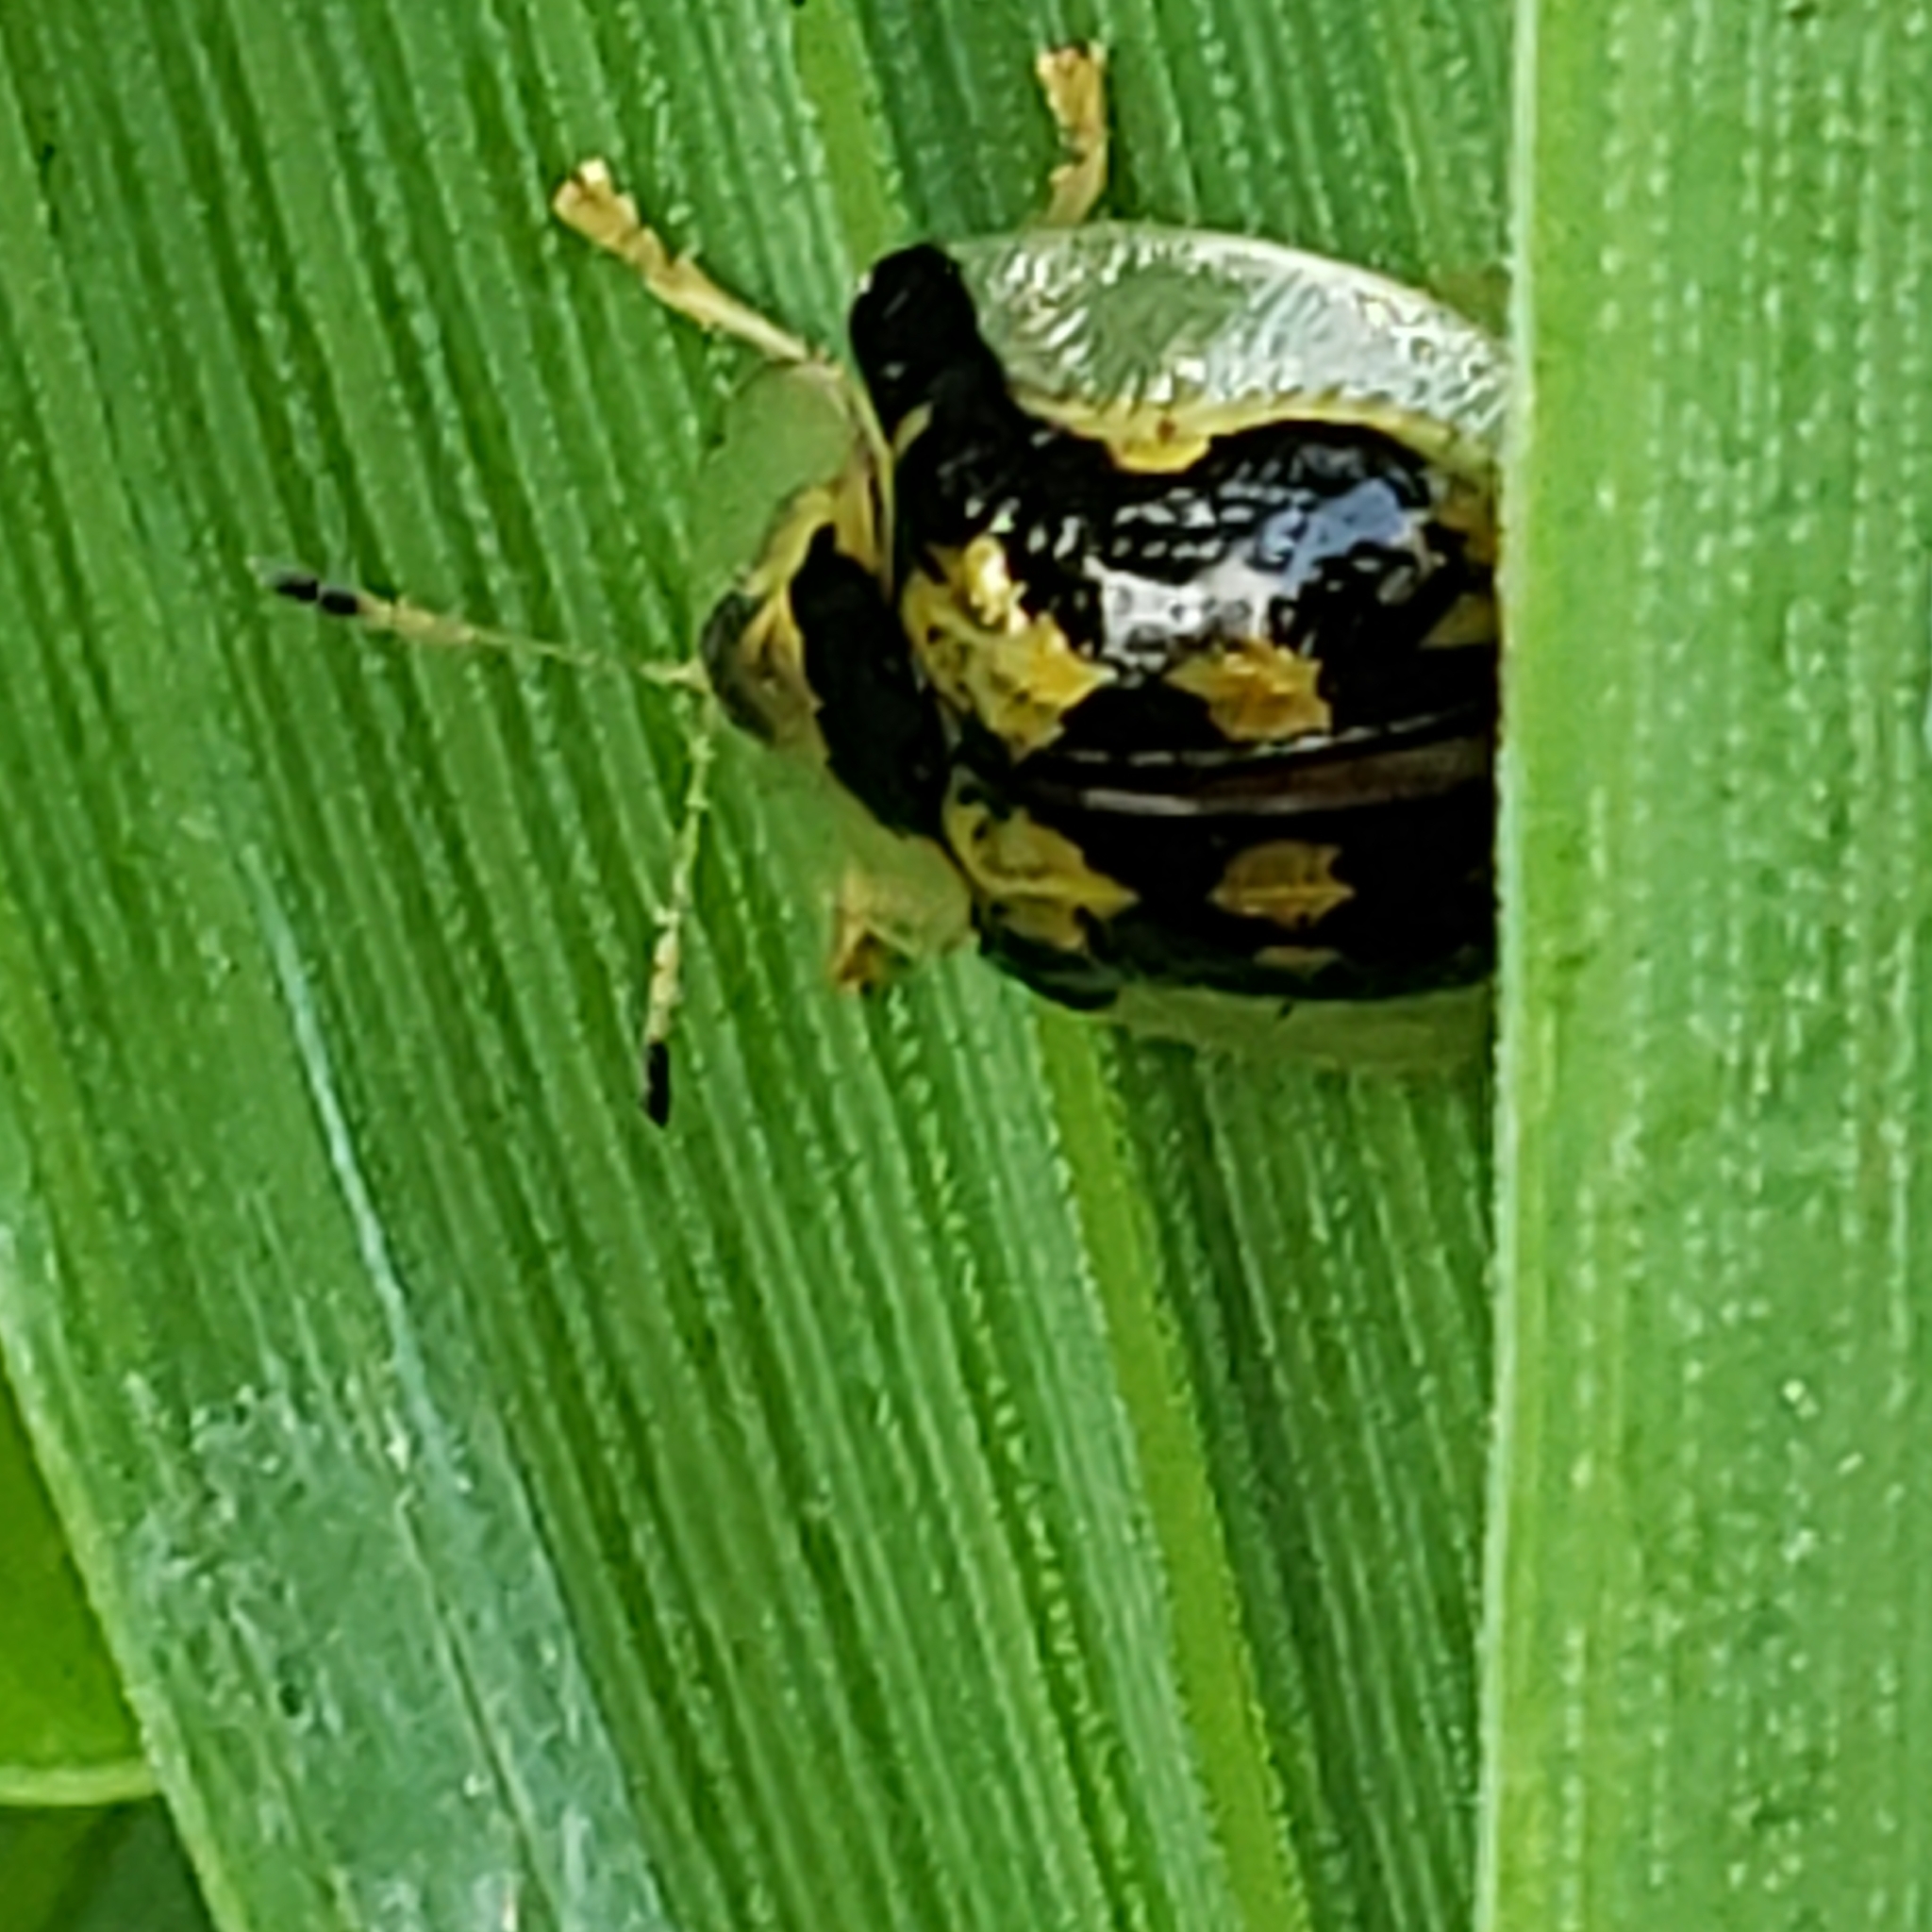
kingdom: Animalia
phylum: Arthropoda
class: Insecta
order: Coleoptera
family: Chrysomelidae
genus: Deloyala
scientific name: Deloyala guttata
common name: Mottled tortoise beetle
